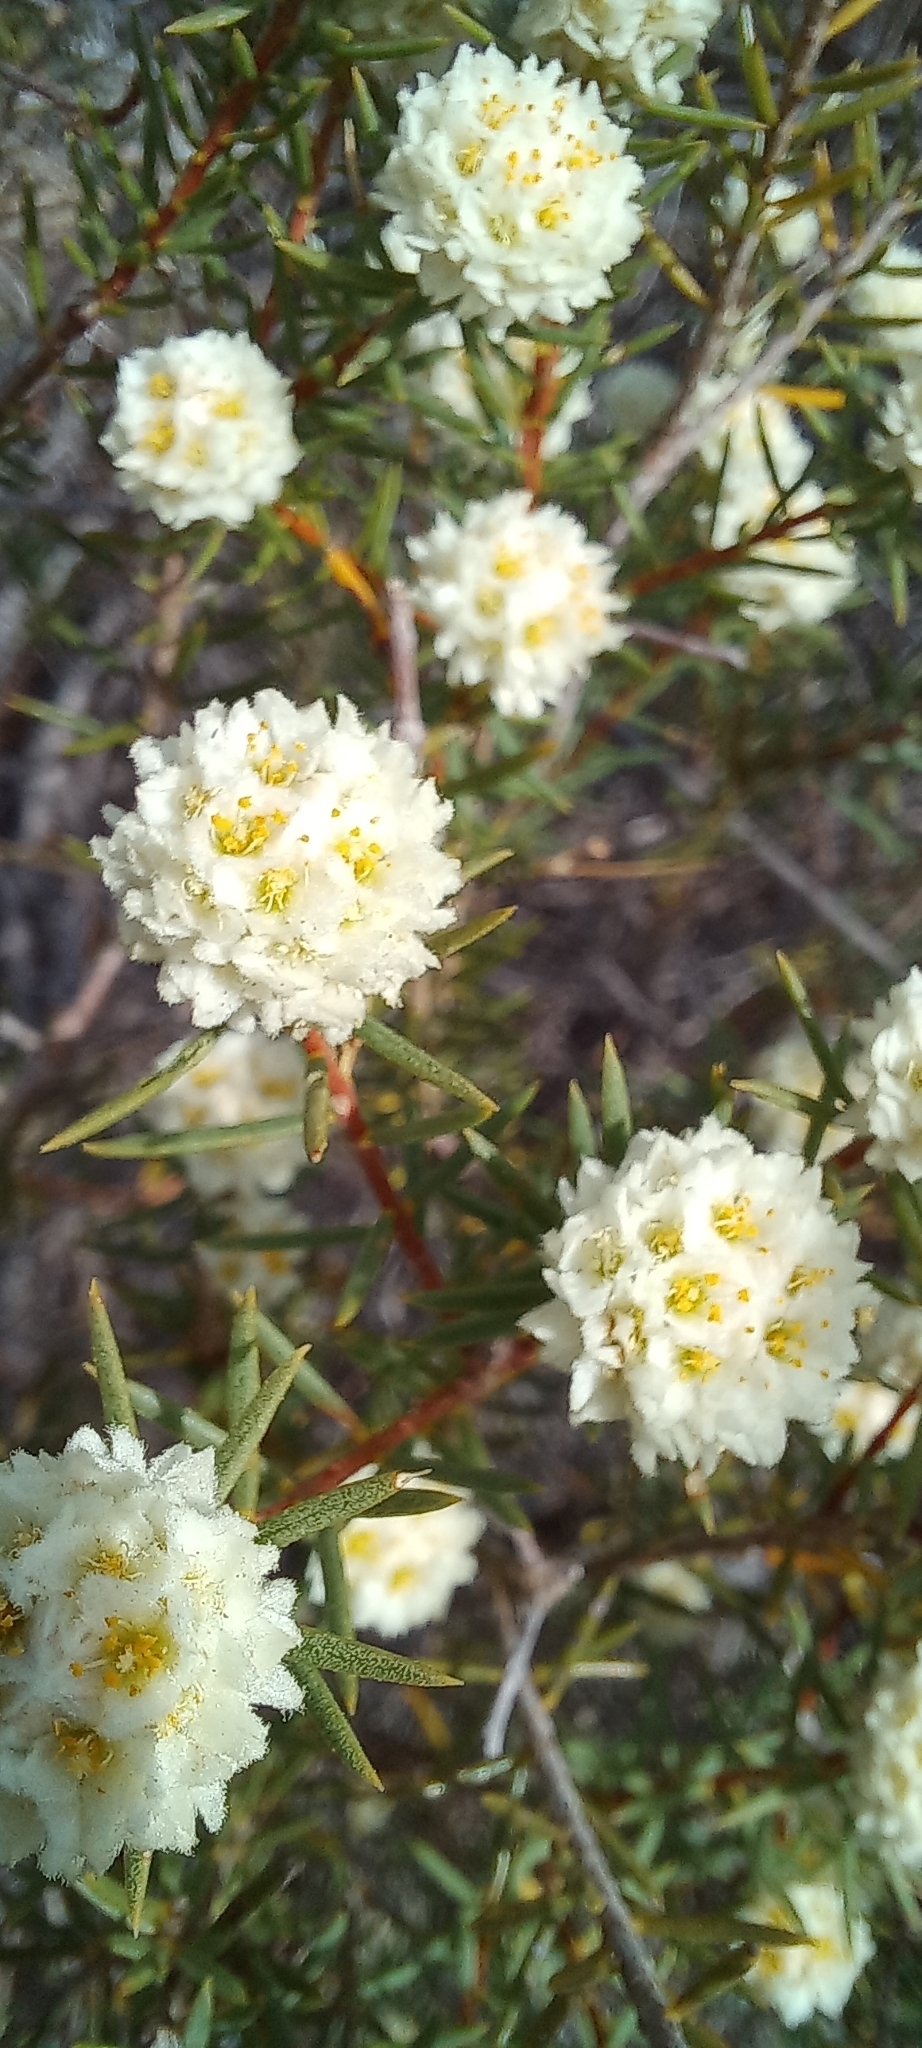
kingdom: Plantae
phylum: Tracheophyta
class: Magnoliopsida
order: Malvales
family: Thymelaeaceae
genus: Lachnaea
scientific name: Lachnaea densiflora
